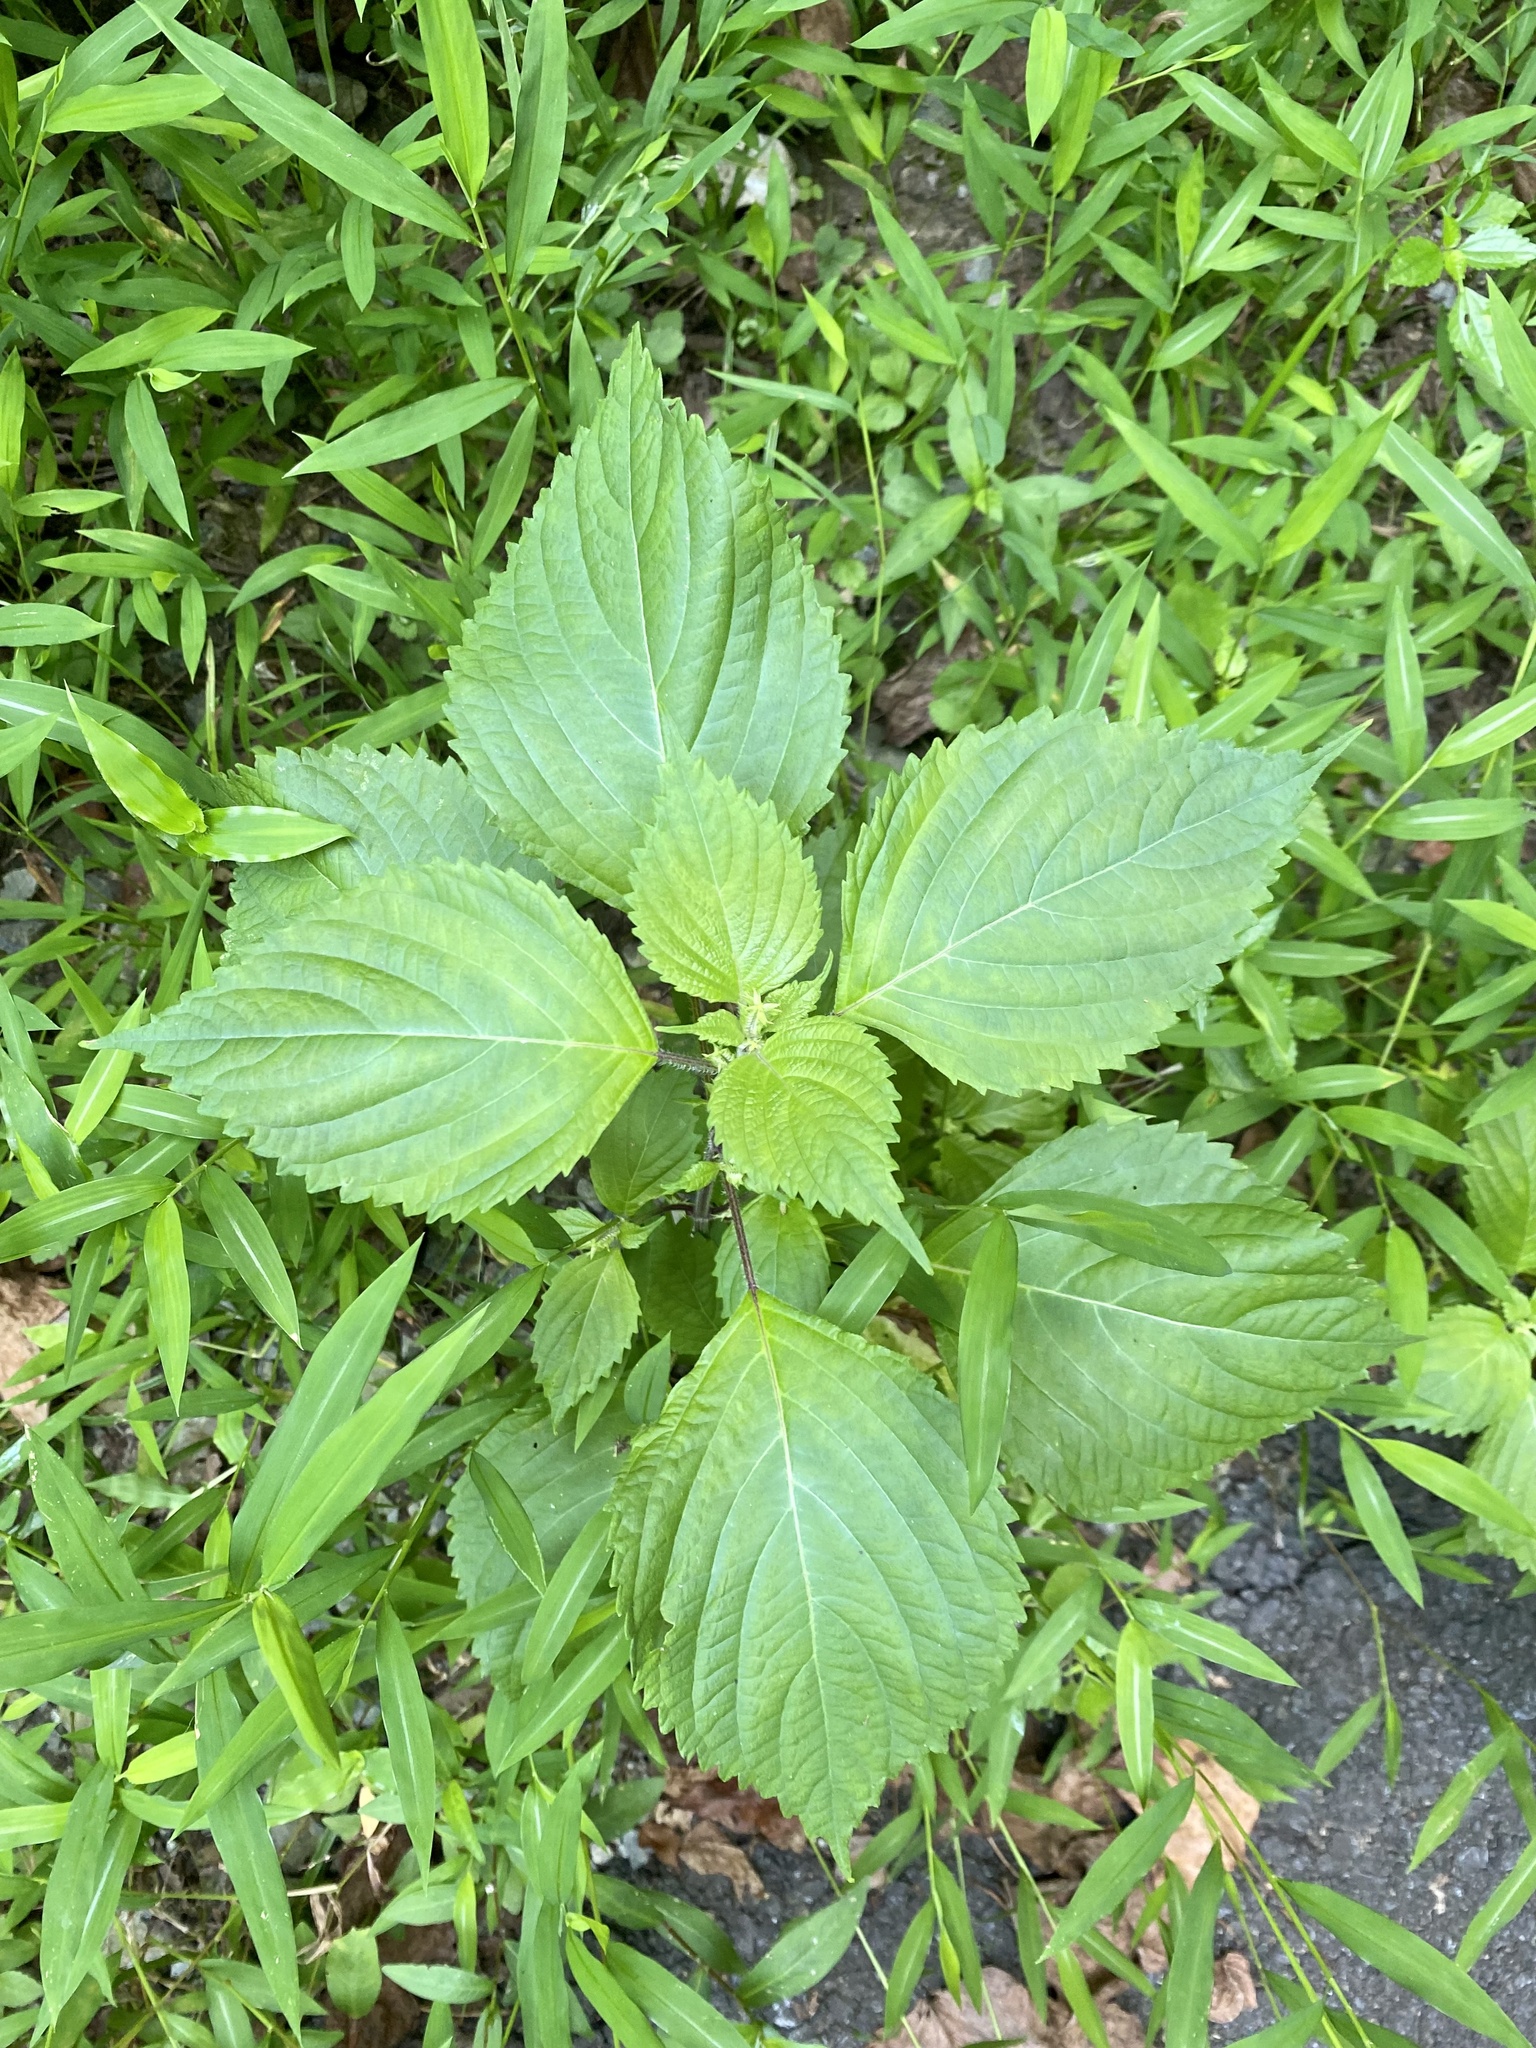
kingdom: Plantae
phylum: Tracheophyta
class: Magnoliopsida
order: Lamiales
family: Lamiaceae
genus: Perilla
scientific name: Perilla frutescens
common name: Perilla
